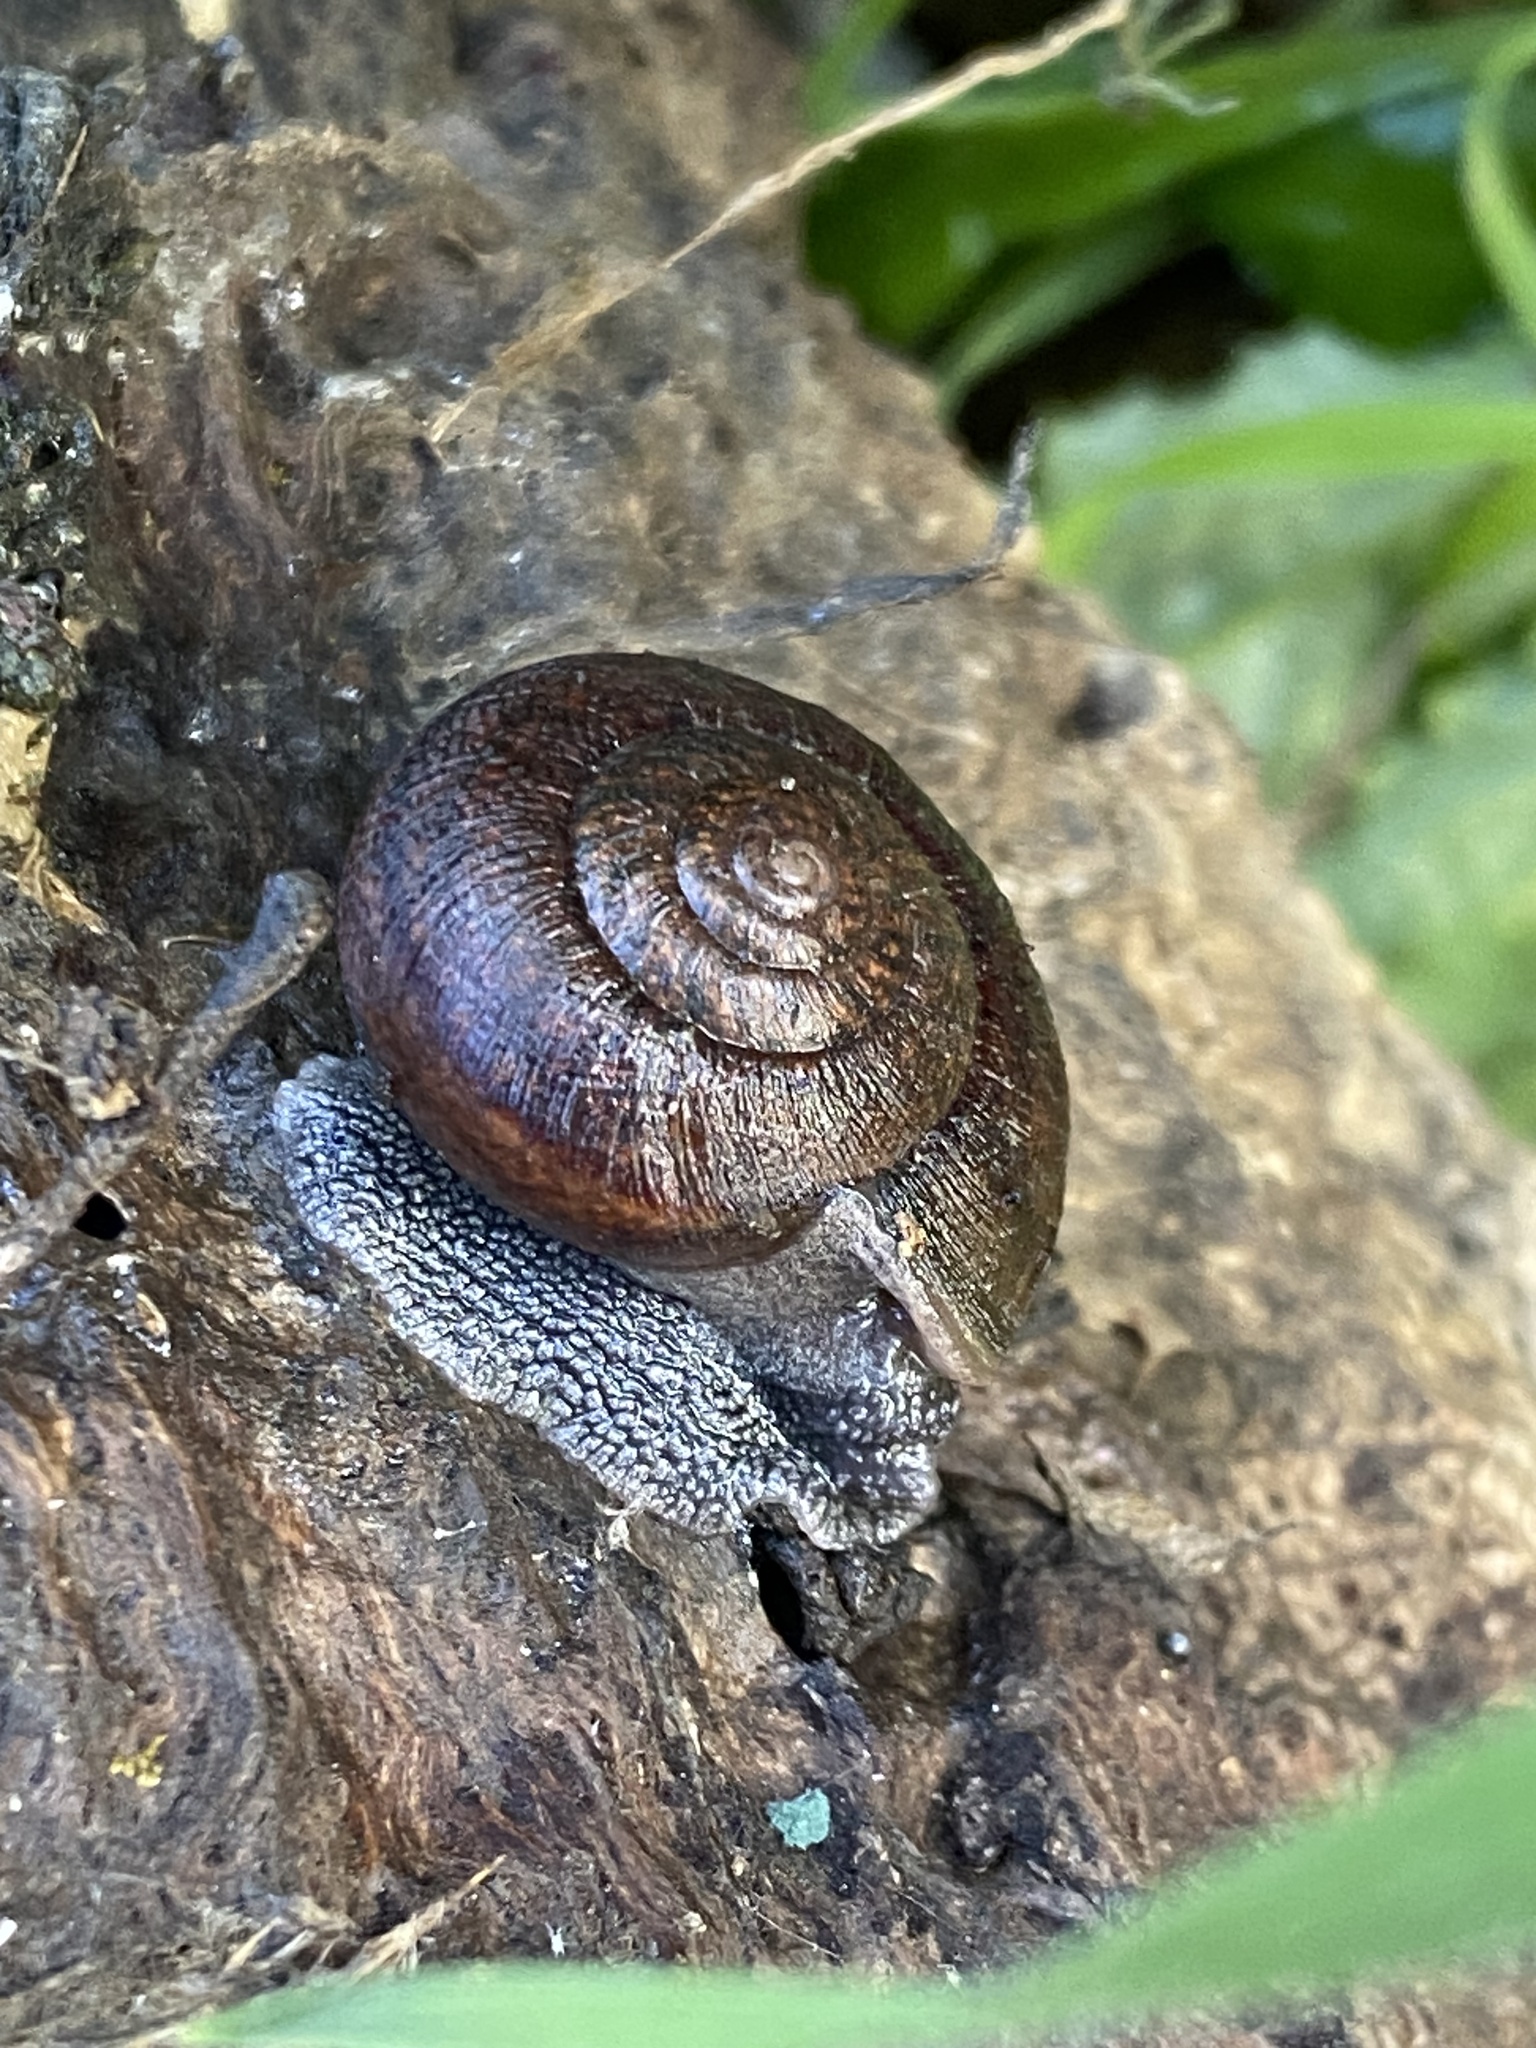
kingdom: Animalia
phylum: Mollusca
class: Gastropoda
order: Stylommatophora
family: Xanthonychidae
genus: Helminthoglypta
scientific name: Helminthoglypta nickliniana
